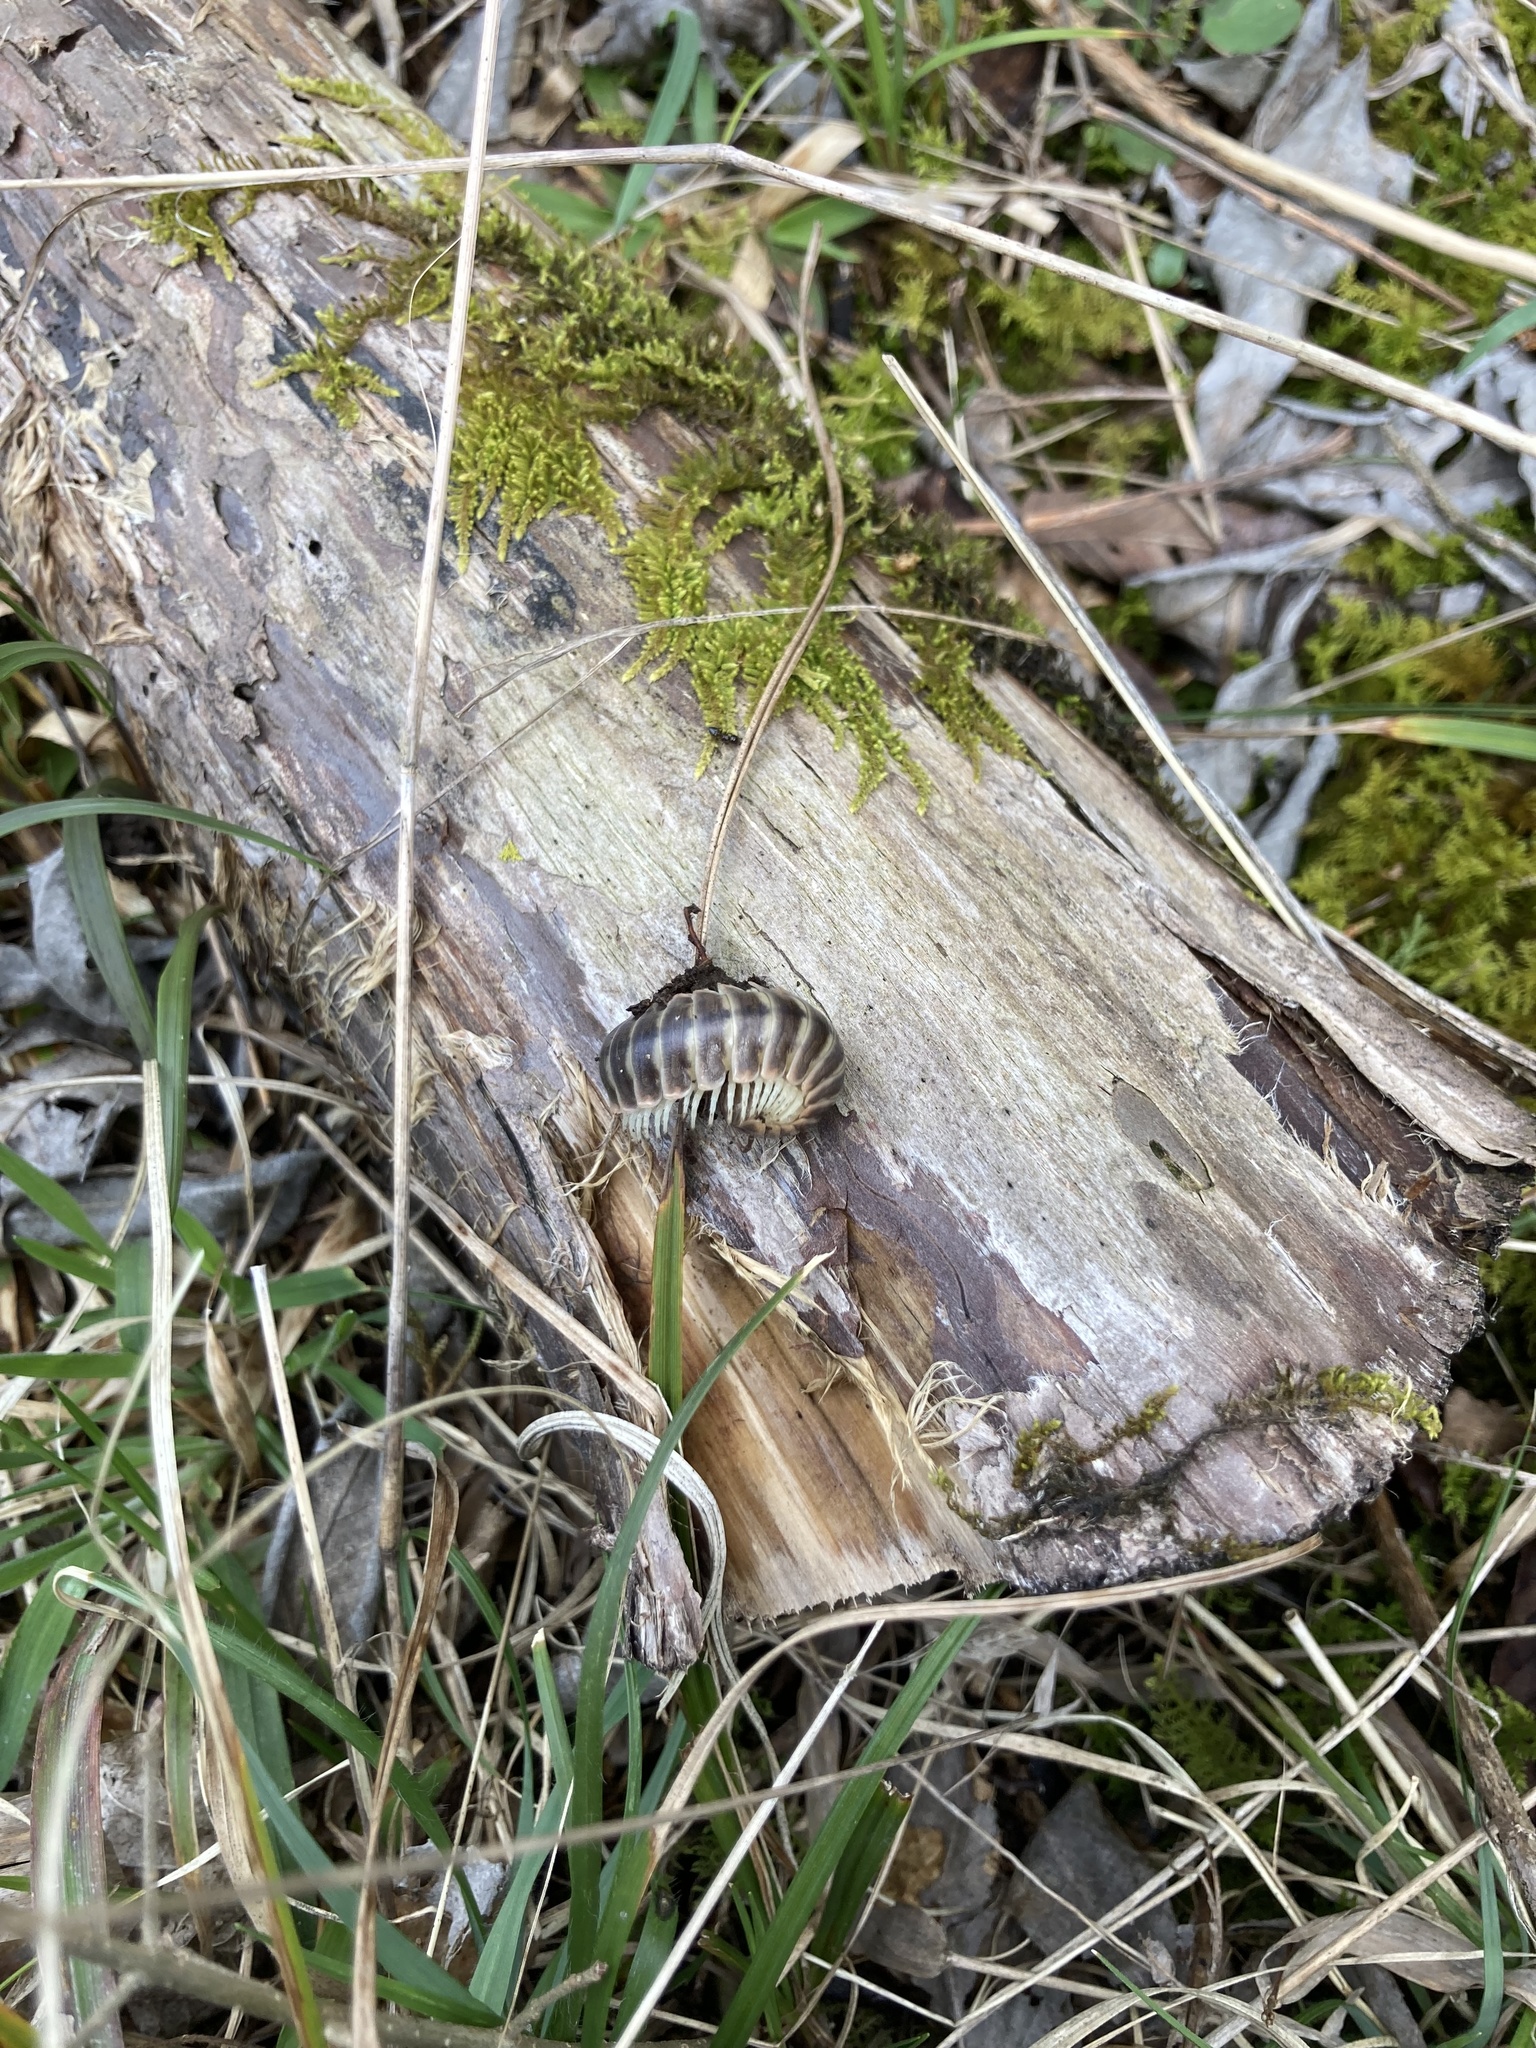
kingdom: Animalia
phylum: Arthropoda
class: Diplopoda
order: Polydesmida
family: Xystodesmidae
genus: Pleuroloma
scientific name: Pleuroloma flavipes
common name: Yellow-legged pleuroloma
